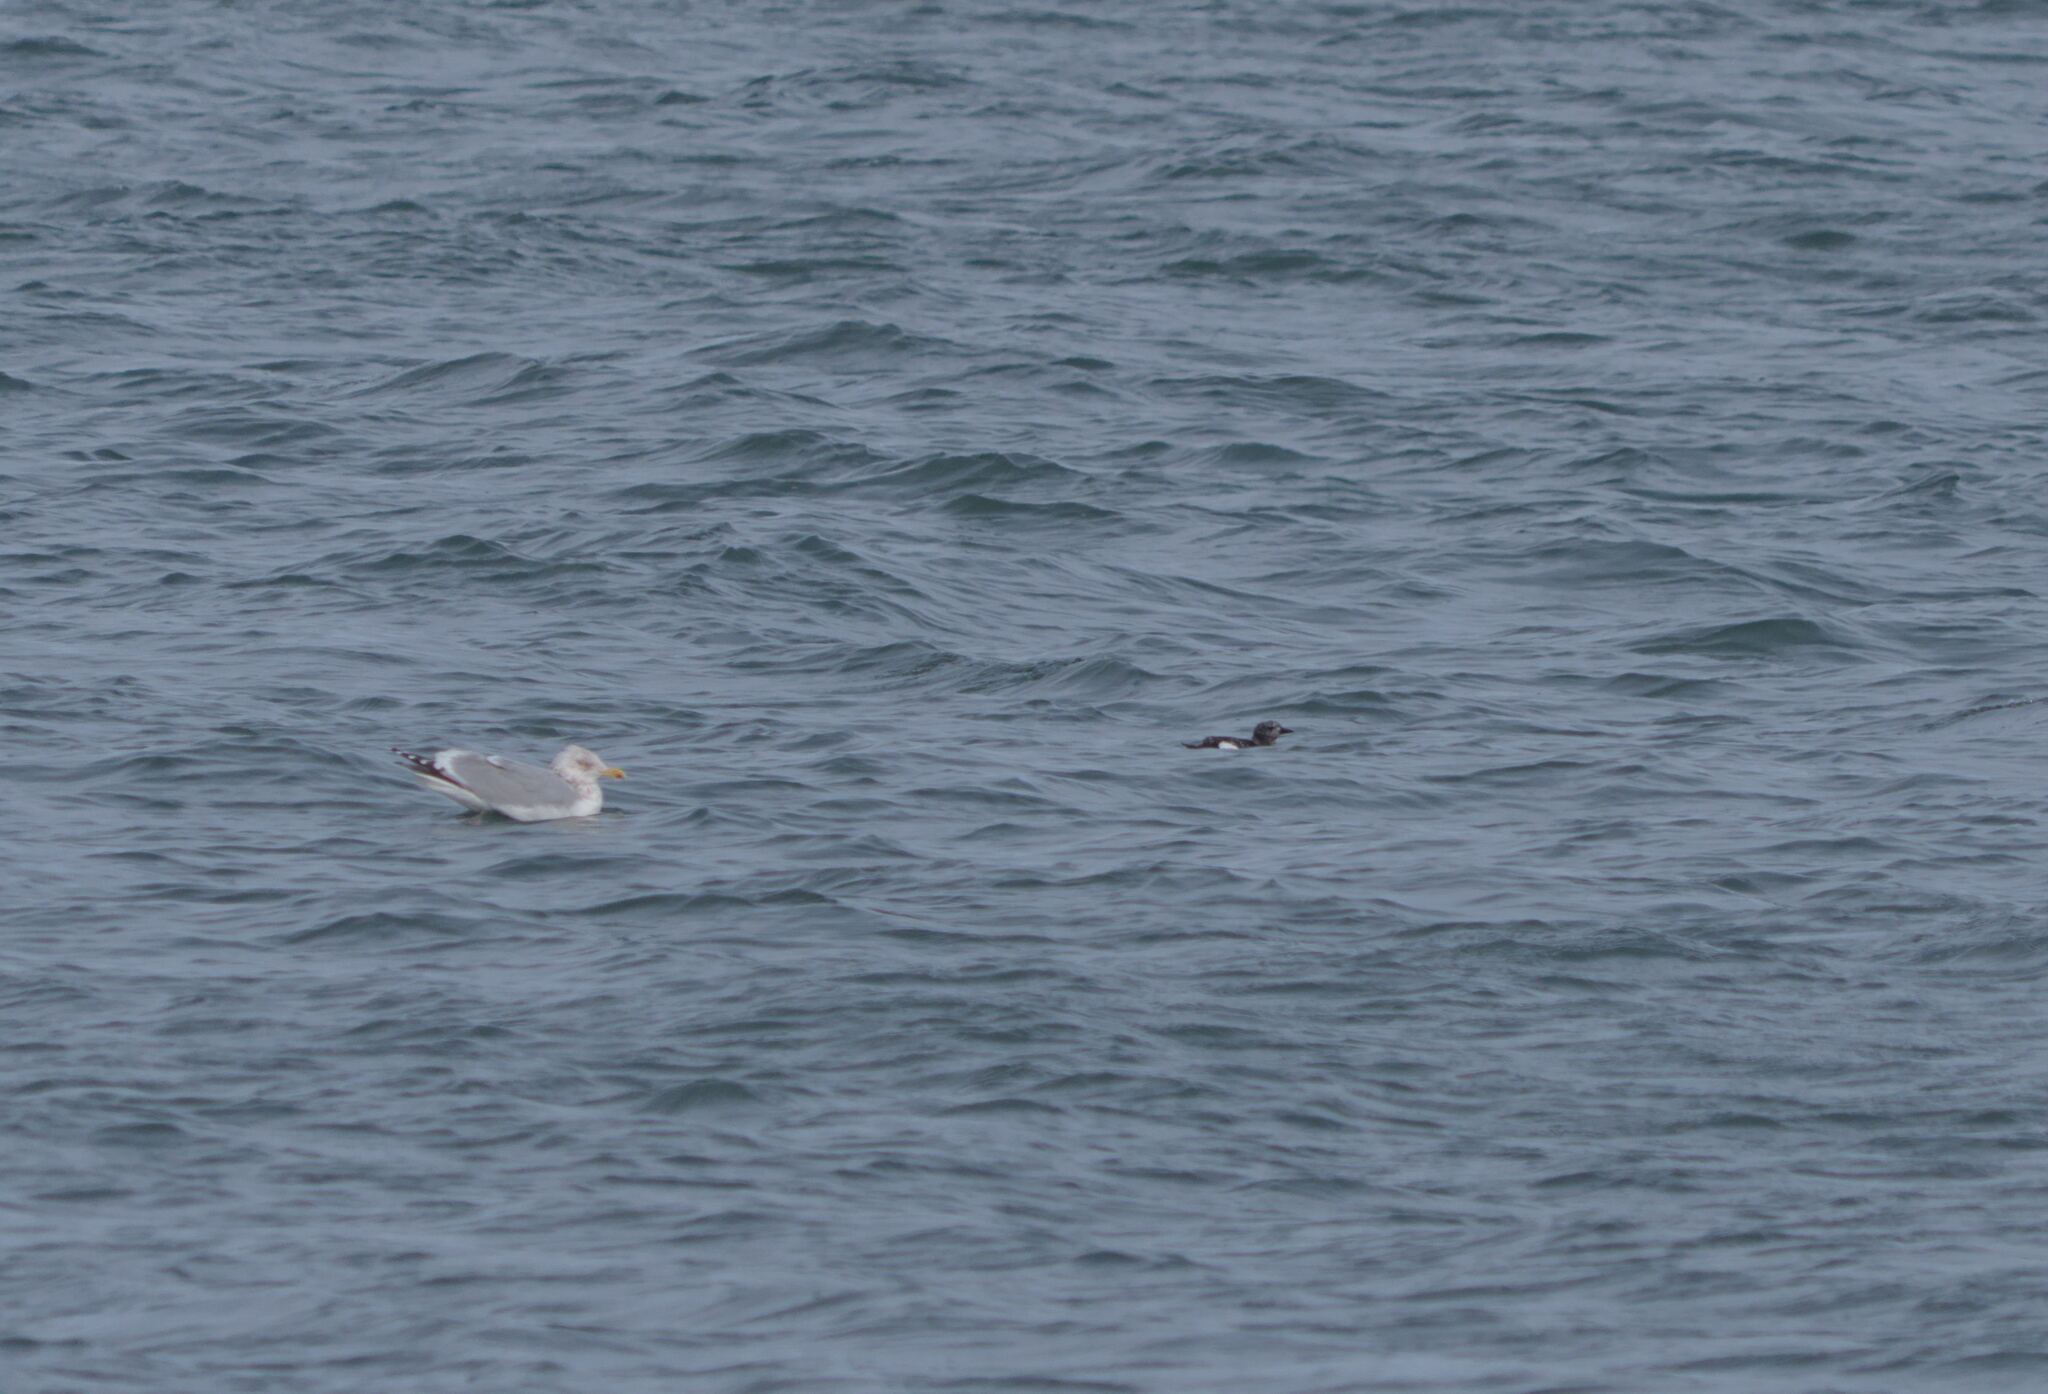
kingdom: Animalia
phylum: Chordata
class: Aves
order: Charadriiformes
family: Alcidae
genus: Cepphus
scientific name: Cepphus grylle
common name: Black guillemot
